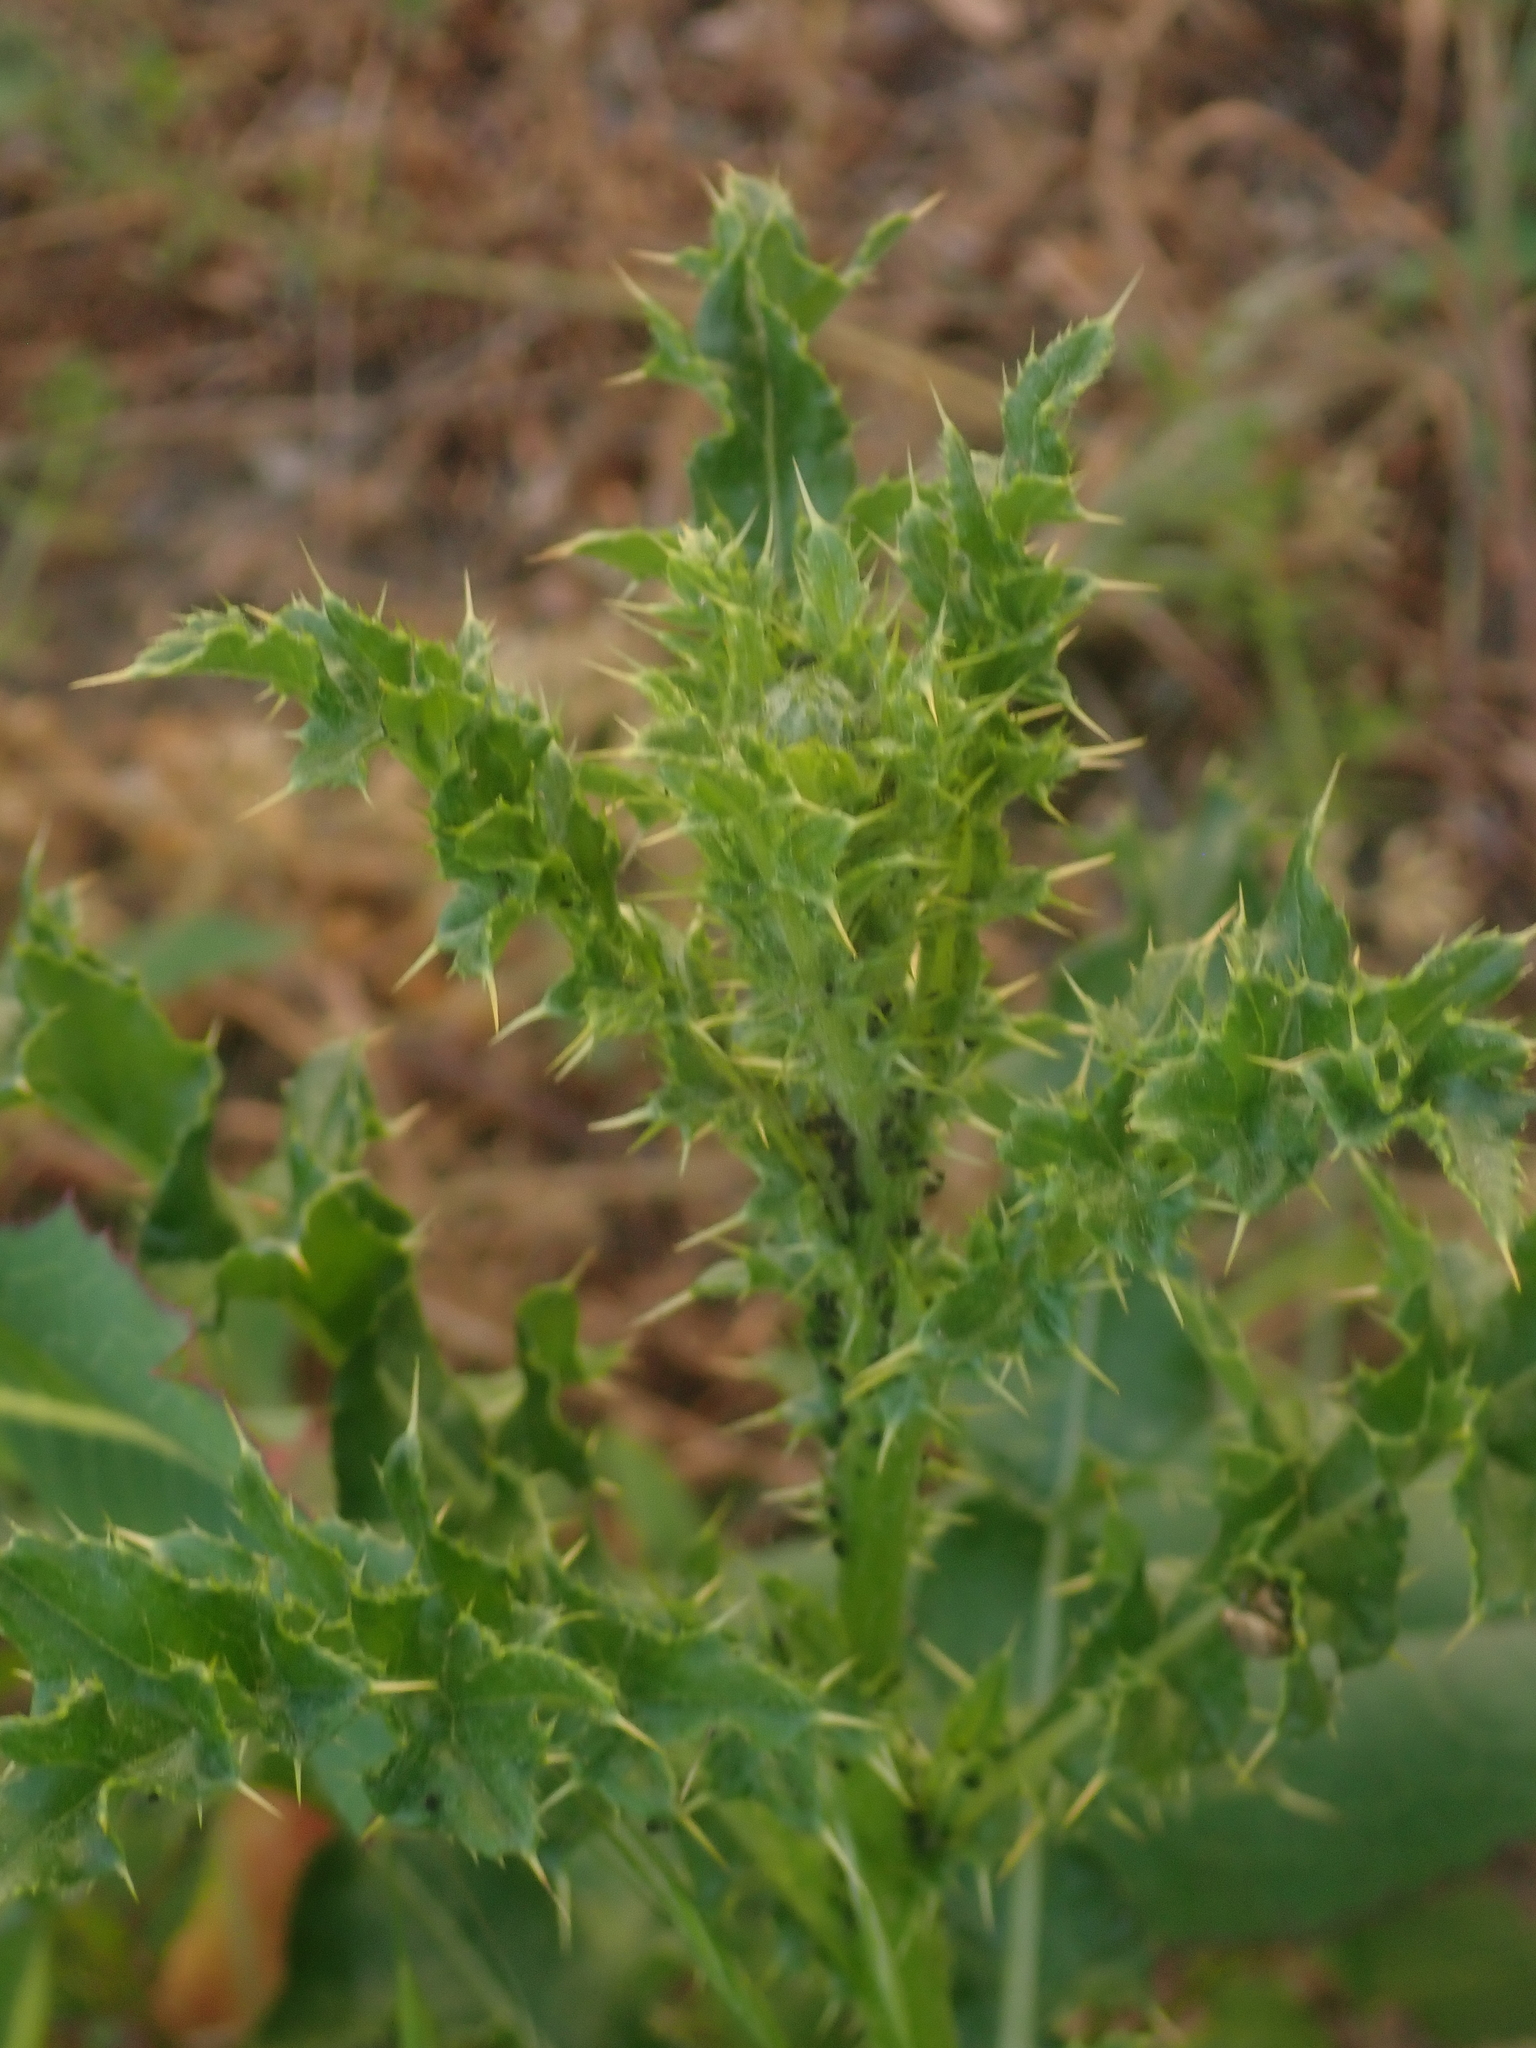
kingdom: Plantae
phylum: Tracheophyta
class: Magnoliopsida
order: Asterales
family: Asteraceae
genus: Cirsium
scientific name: Cirsium arvense
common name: Creeping thistle
